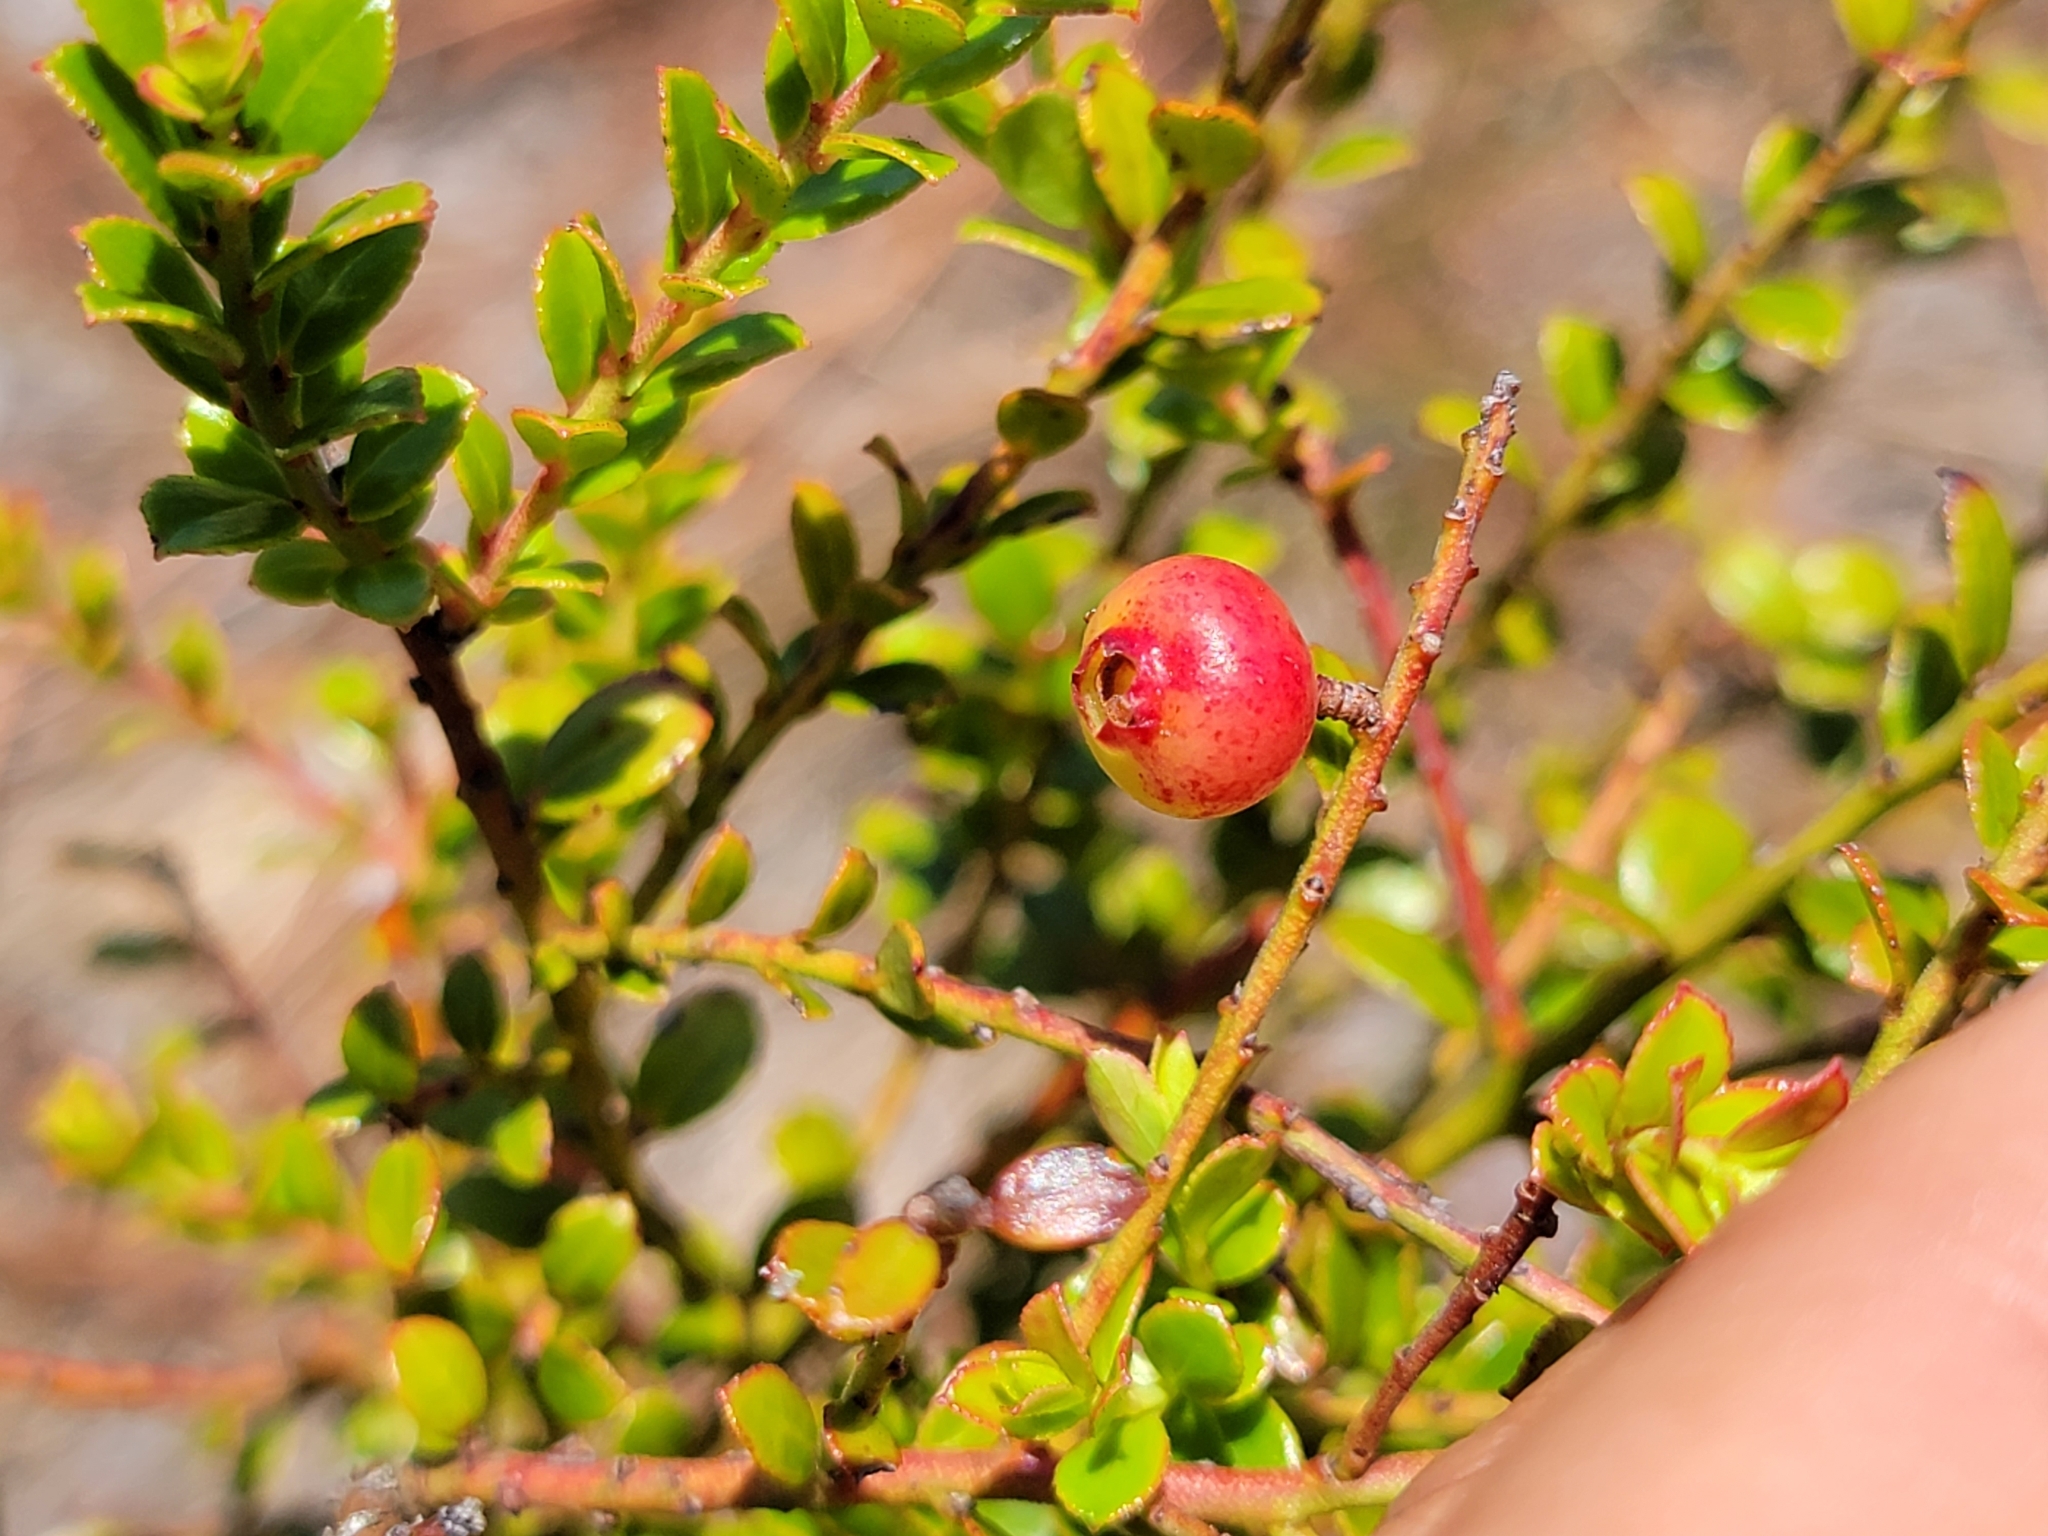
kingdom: Plantae
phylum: Tracheophyta
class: Magnoliopsida
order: Ericales
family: Ericaceae
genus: Vaccinium
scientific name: Vaccinium myrsinites
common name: Evergreen blueberry
